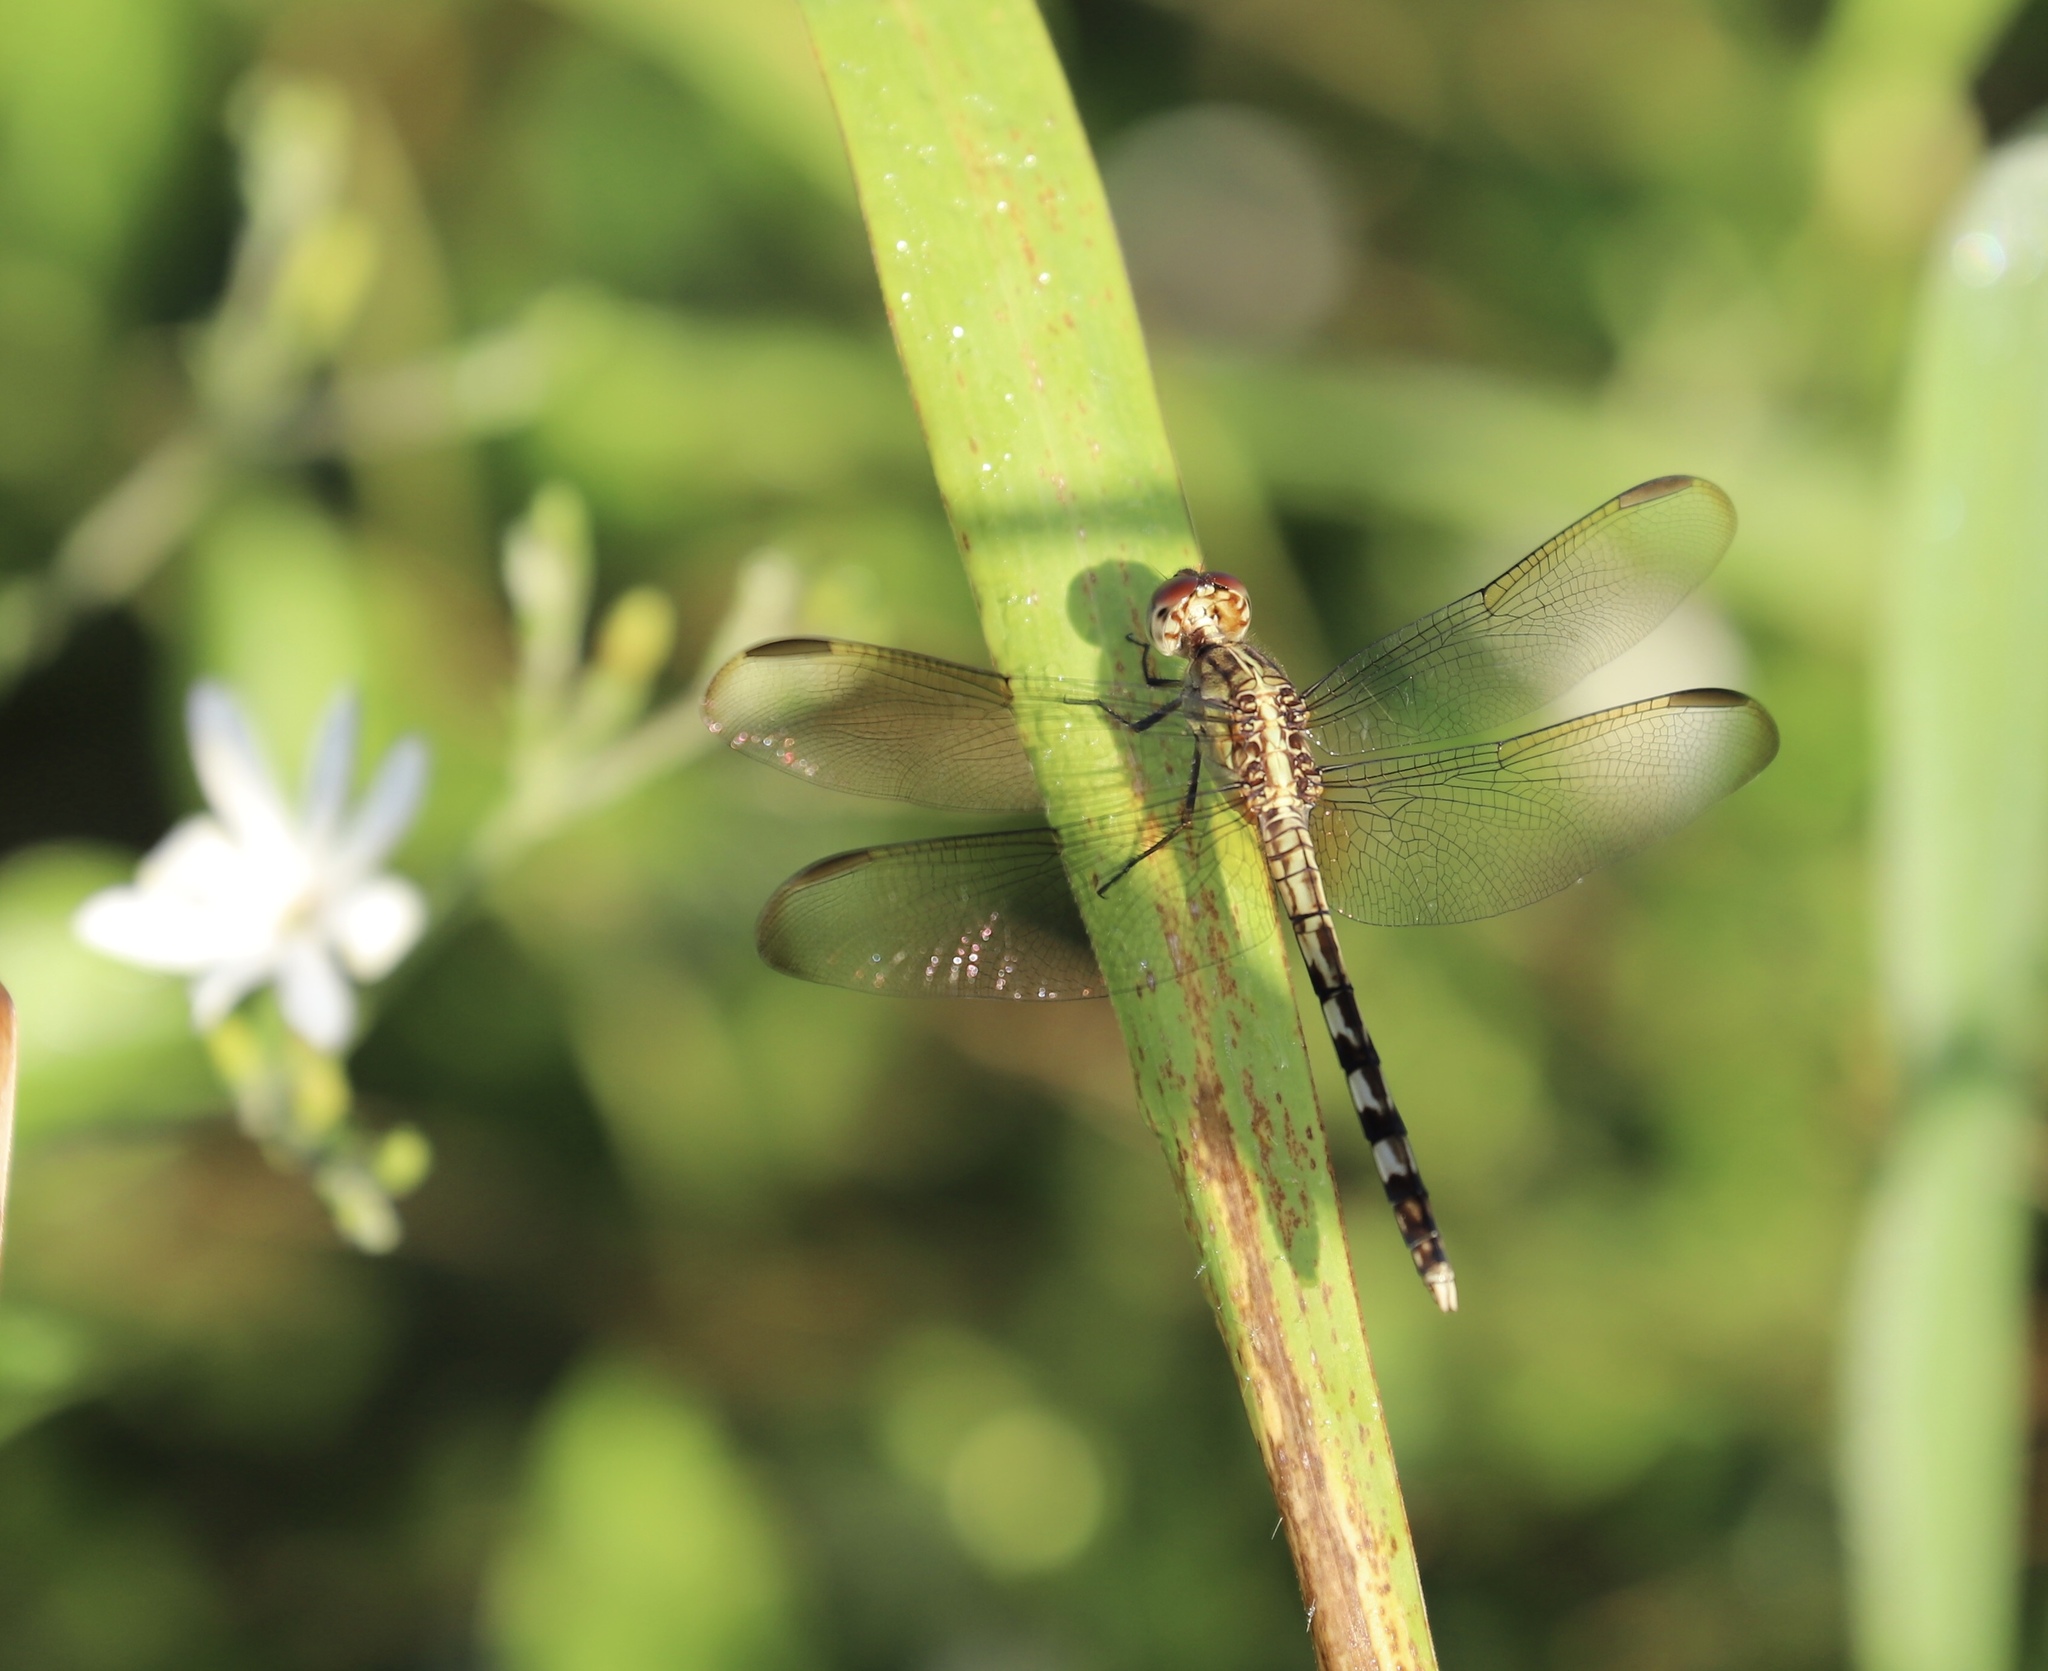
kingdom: Animalia
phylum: Arthropoda
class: Insecta
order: Odonata
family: Libellulidae
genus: Erythrodiplax
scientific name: Erythrodiplax umbrata
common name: Band-winged dragonlet
